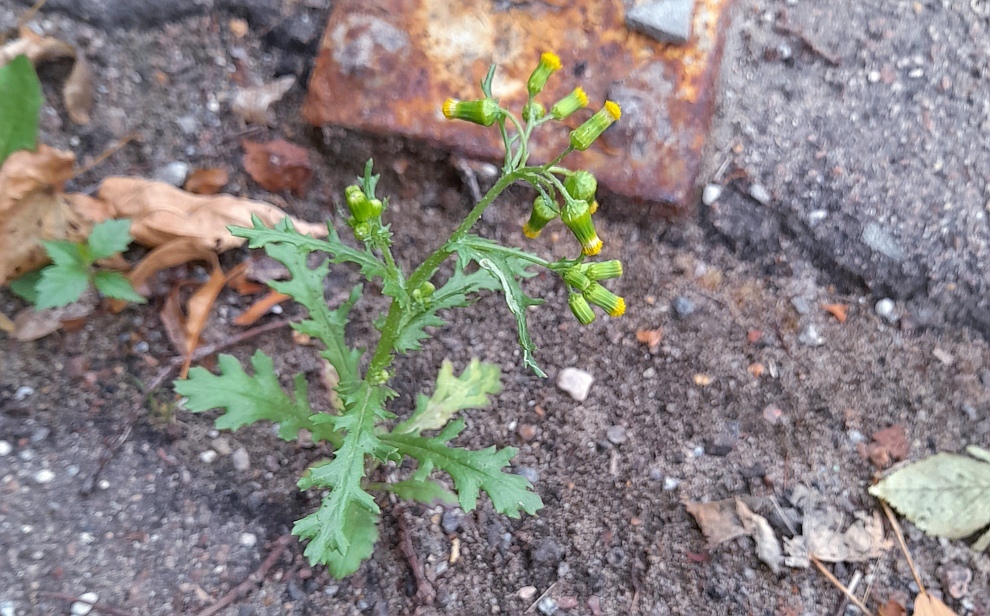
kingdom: Plantae
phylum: Tracheophyta
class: Magnoliopsida
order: Asterales
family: Asteraceae
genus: Senecio
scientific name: Senecio vulgaris
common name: Old-man-in-the-spring
